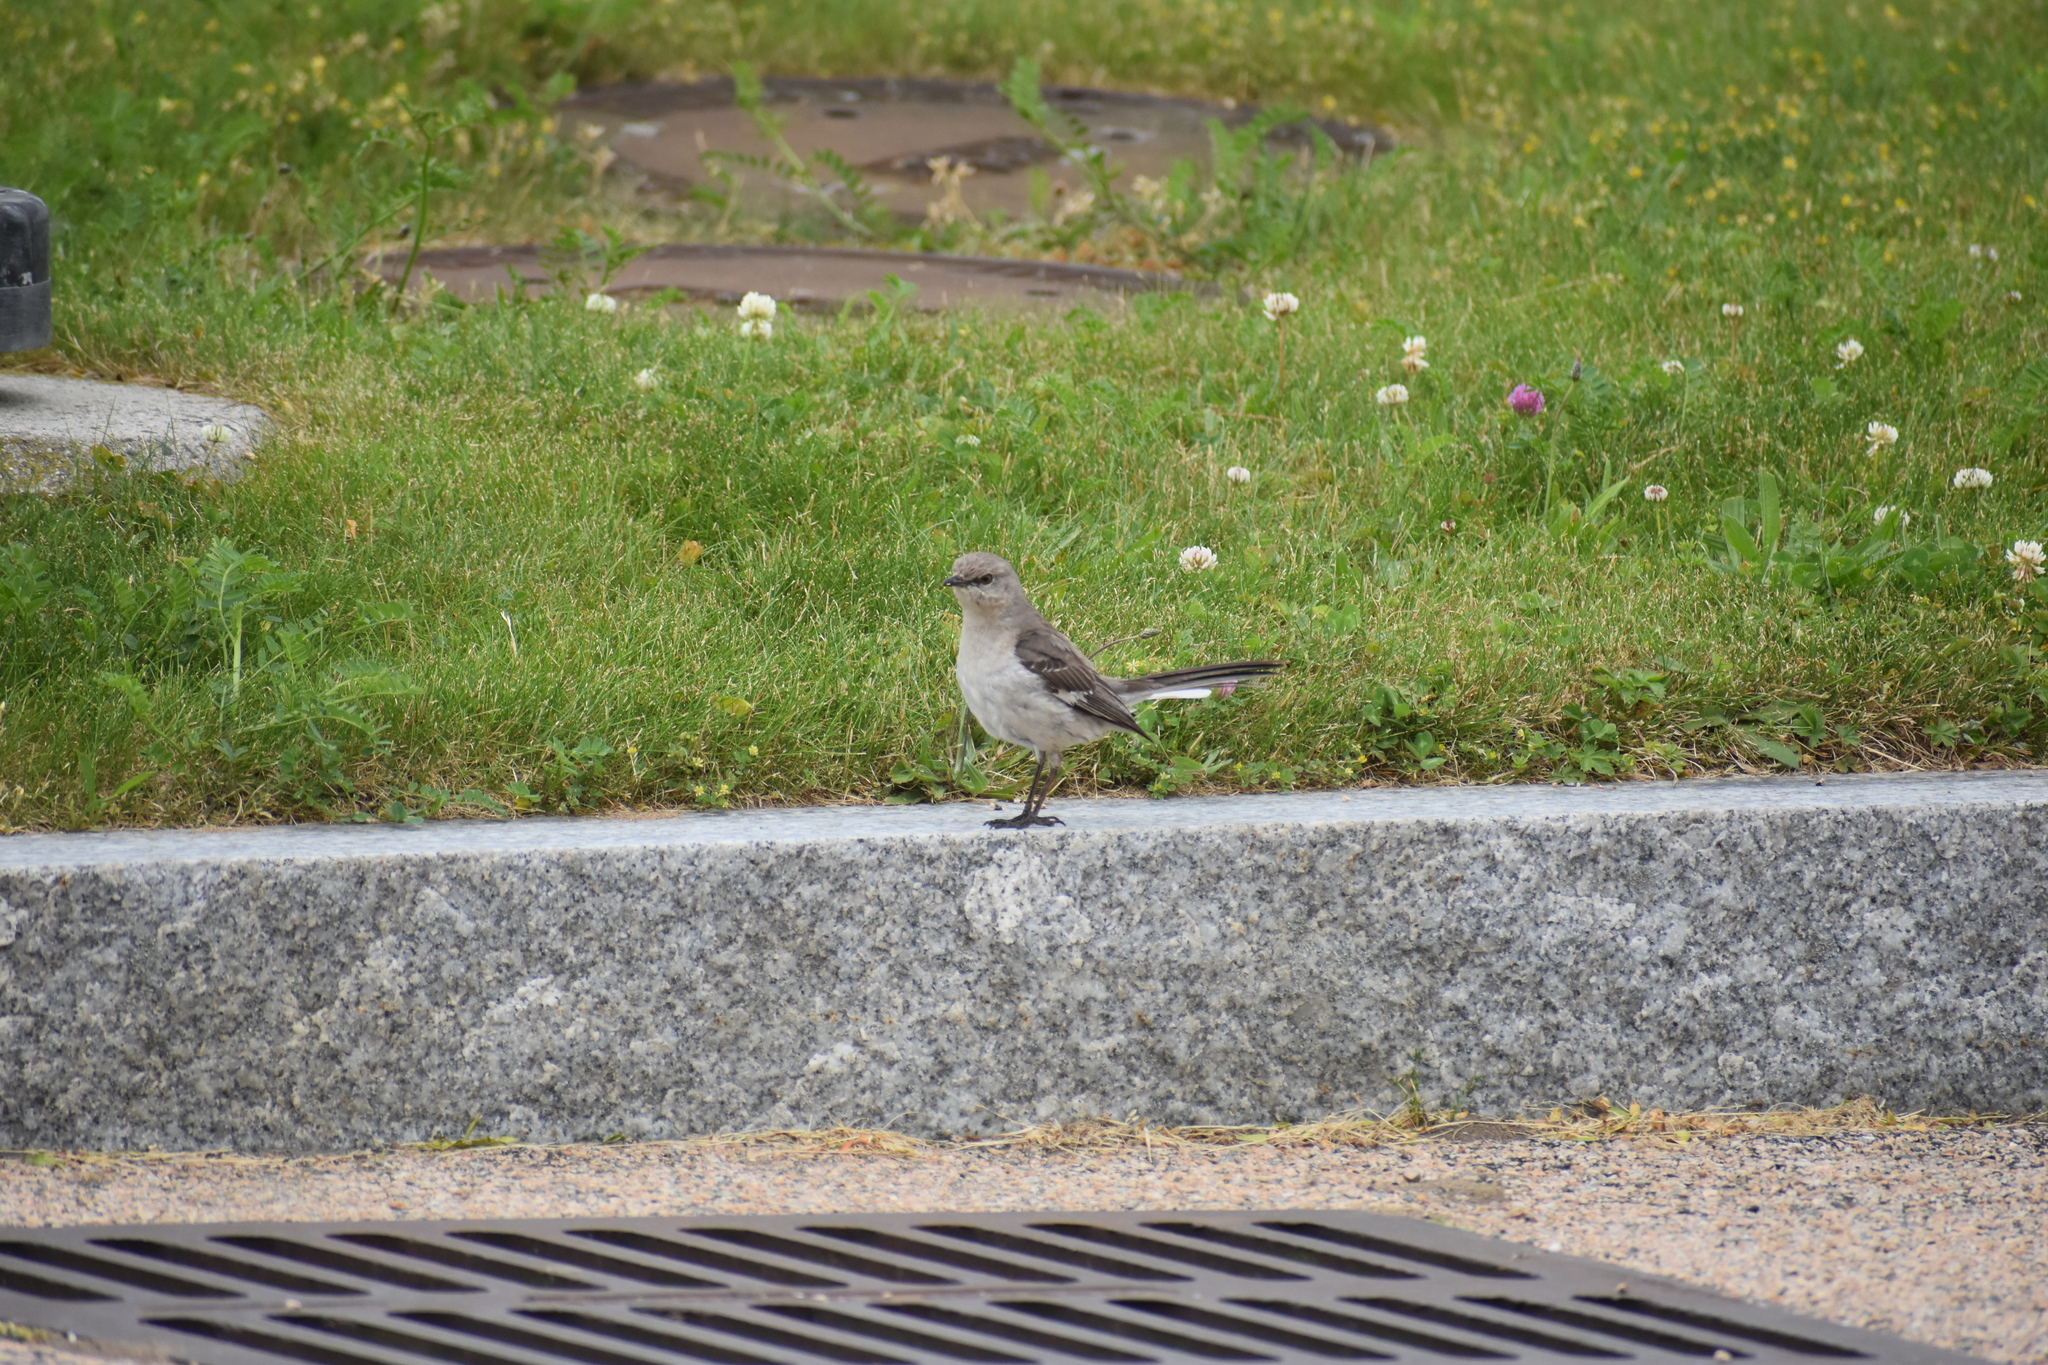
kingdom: Animalia
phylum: Chordata
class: Aves
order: Passeriformes
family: Mimidae
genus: Mimus
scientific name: Mimus polyglottos
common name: Northern mockingbird
